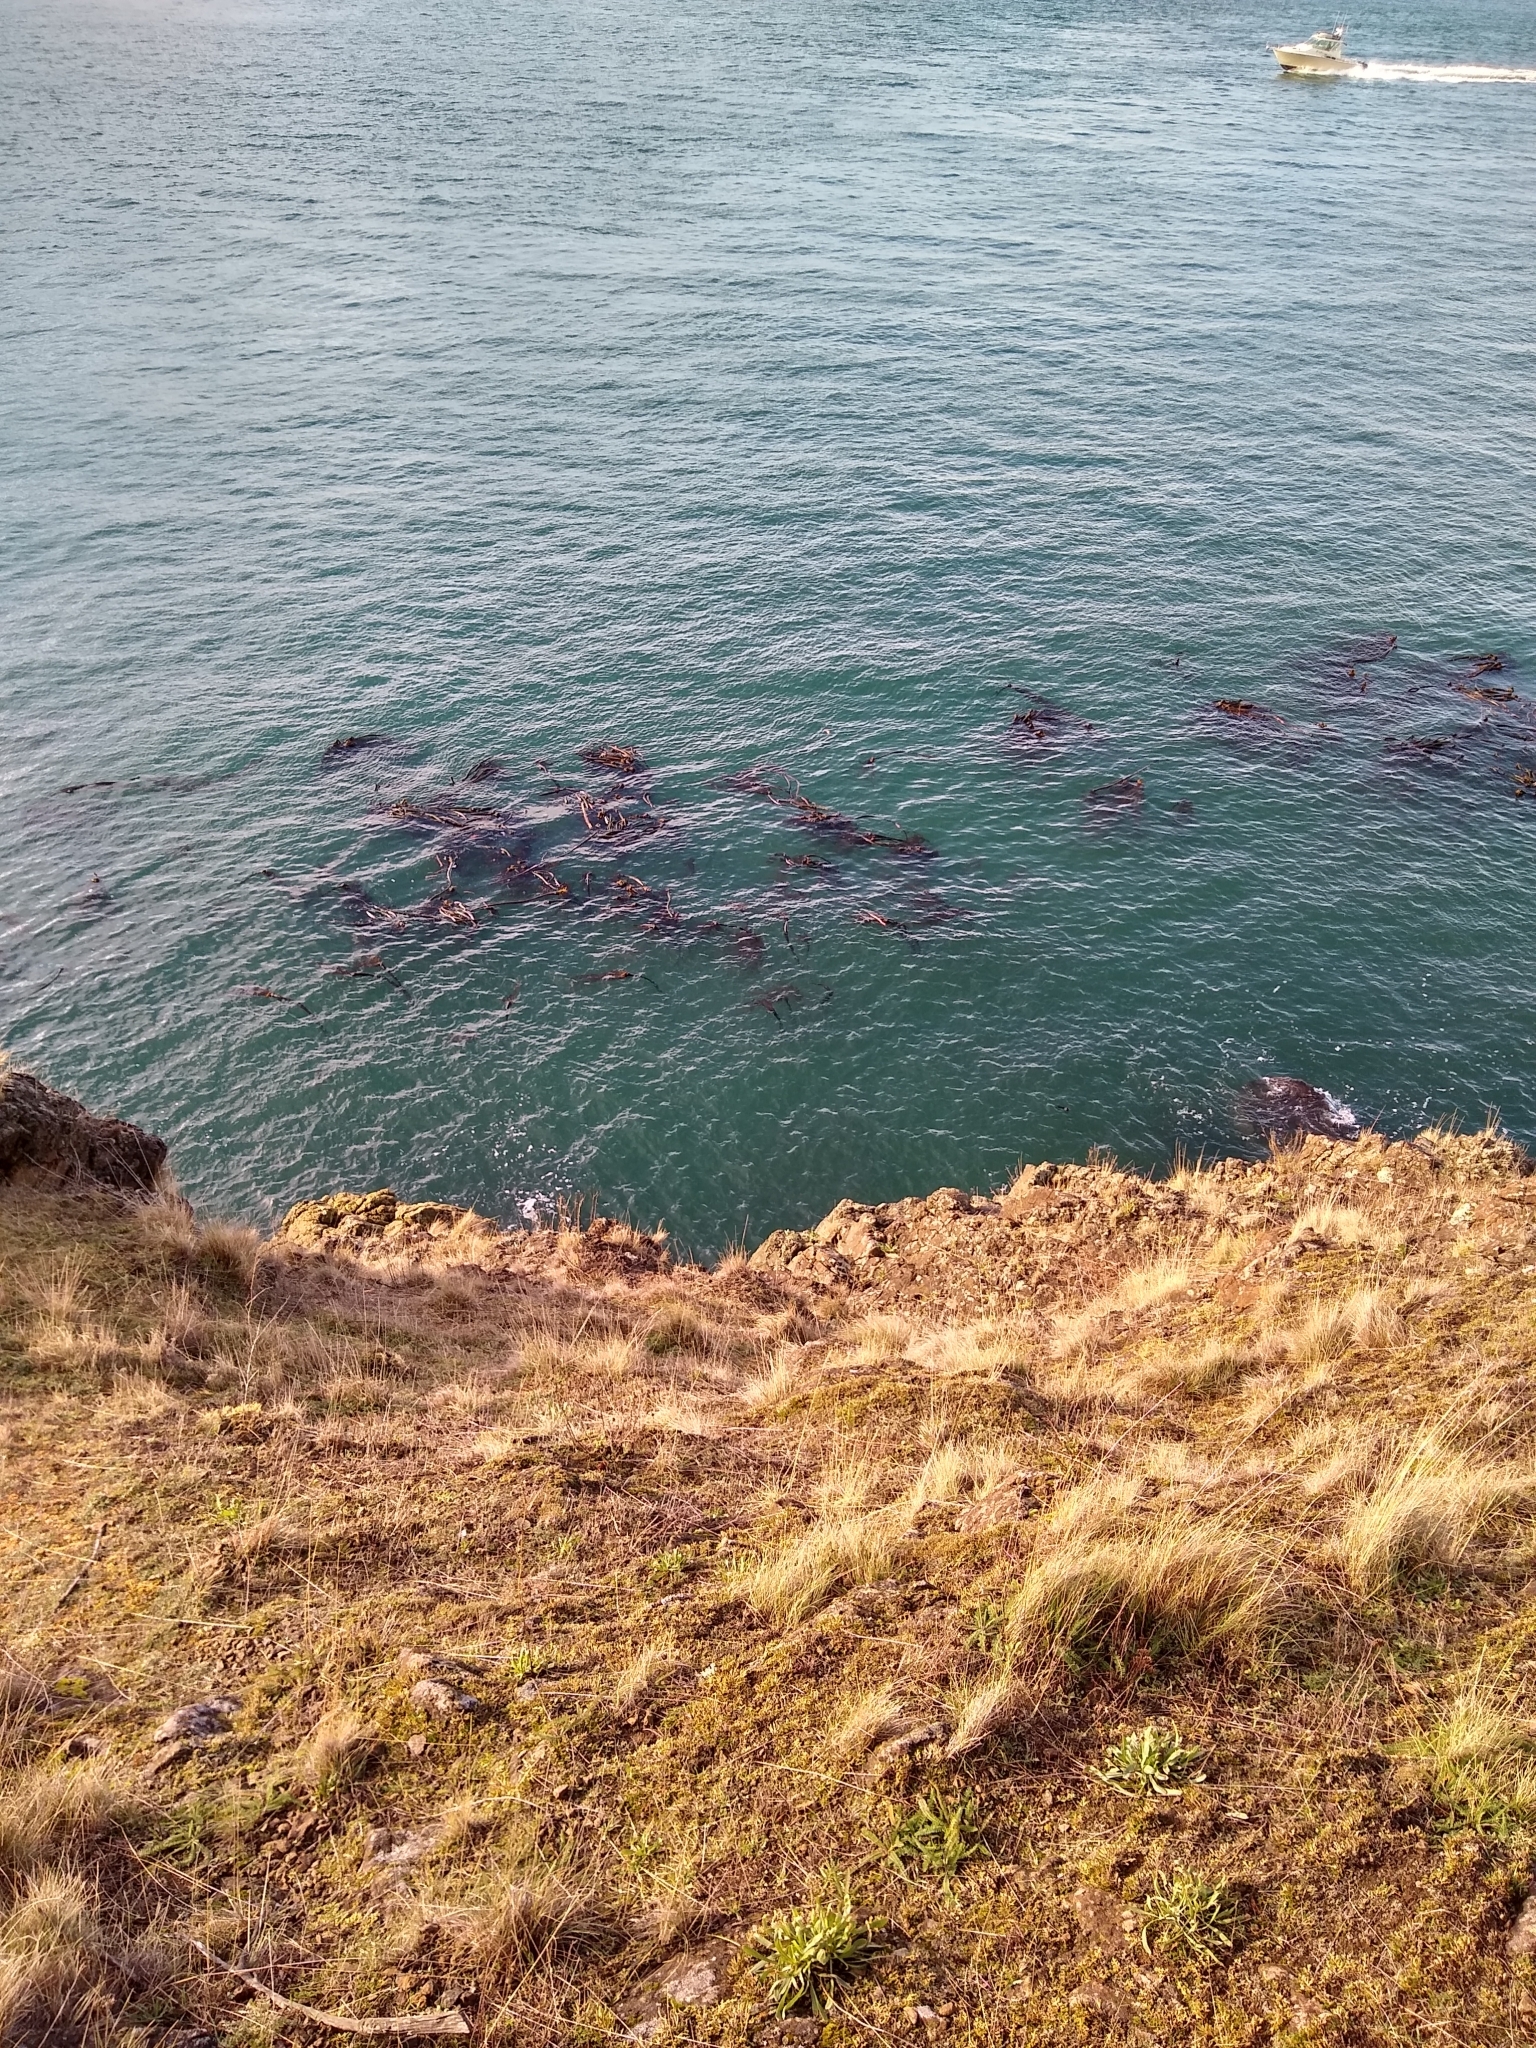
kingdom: Chromista
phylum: Ochrophyta
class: Phaeophyceae
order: Laminariales
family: Laminariaceae
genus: Nereocystis
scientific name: Nereocystis luetkeana
